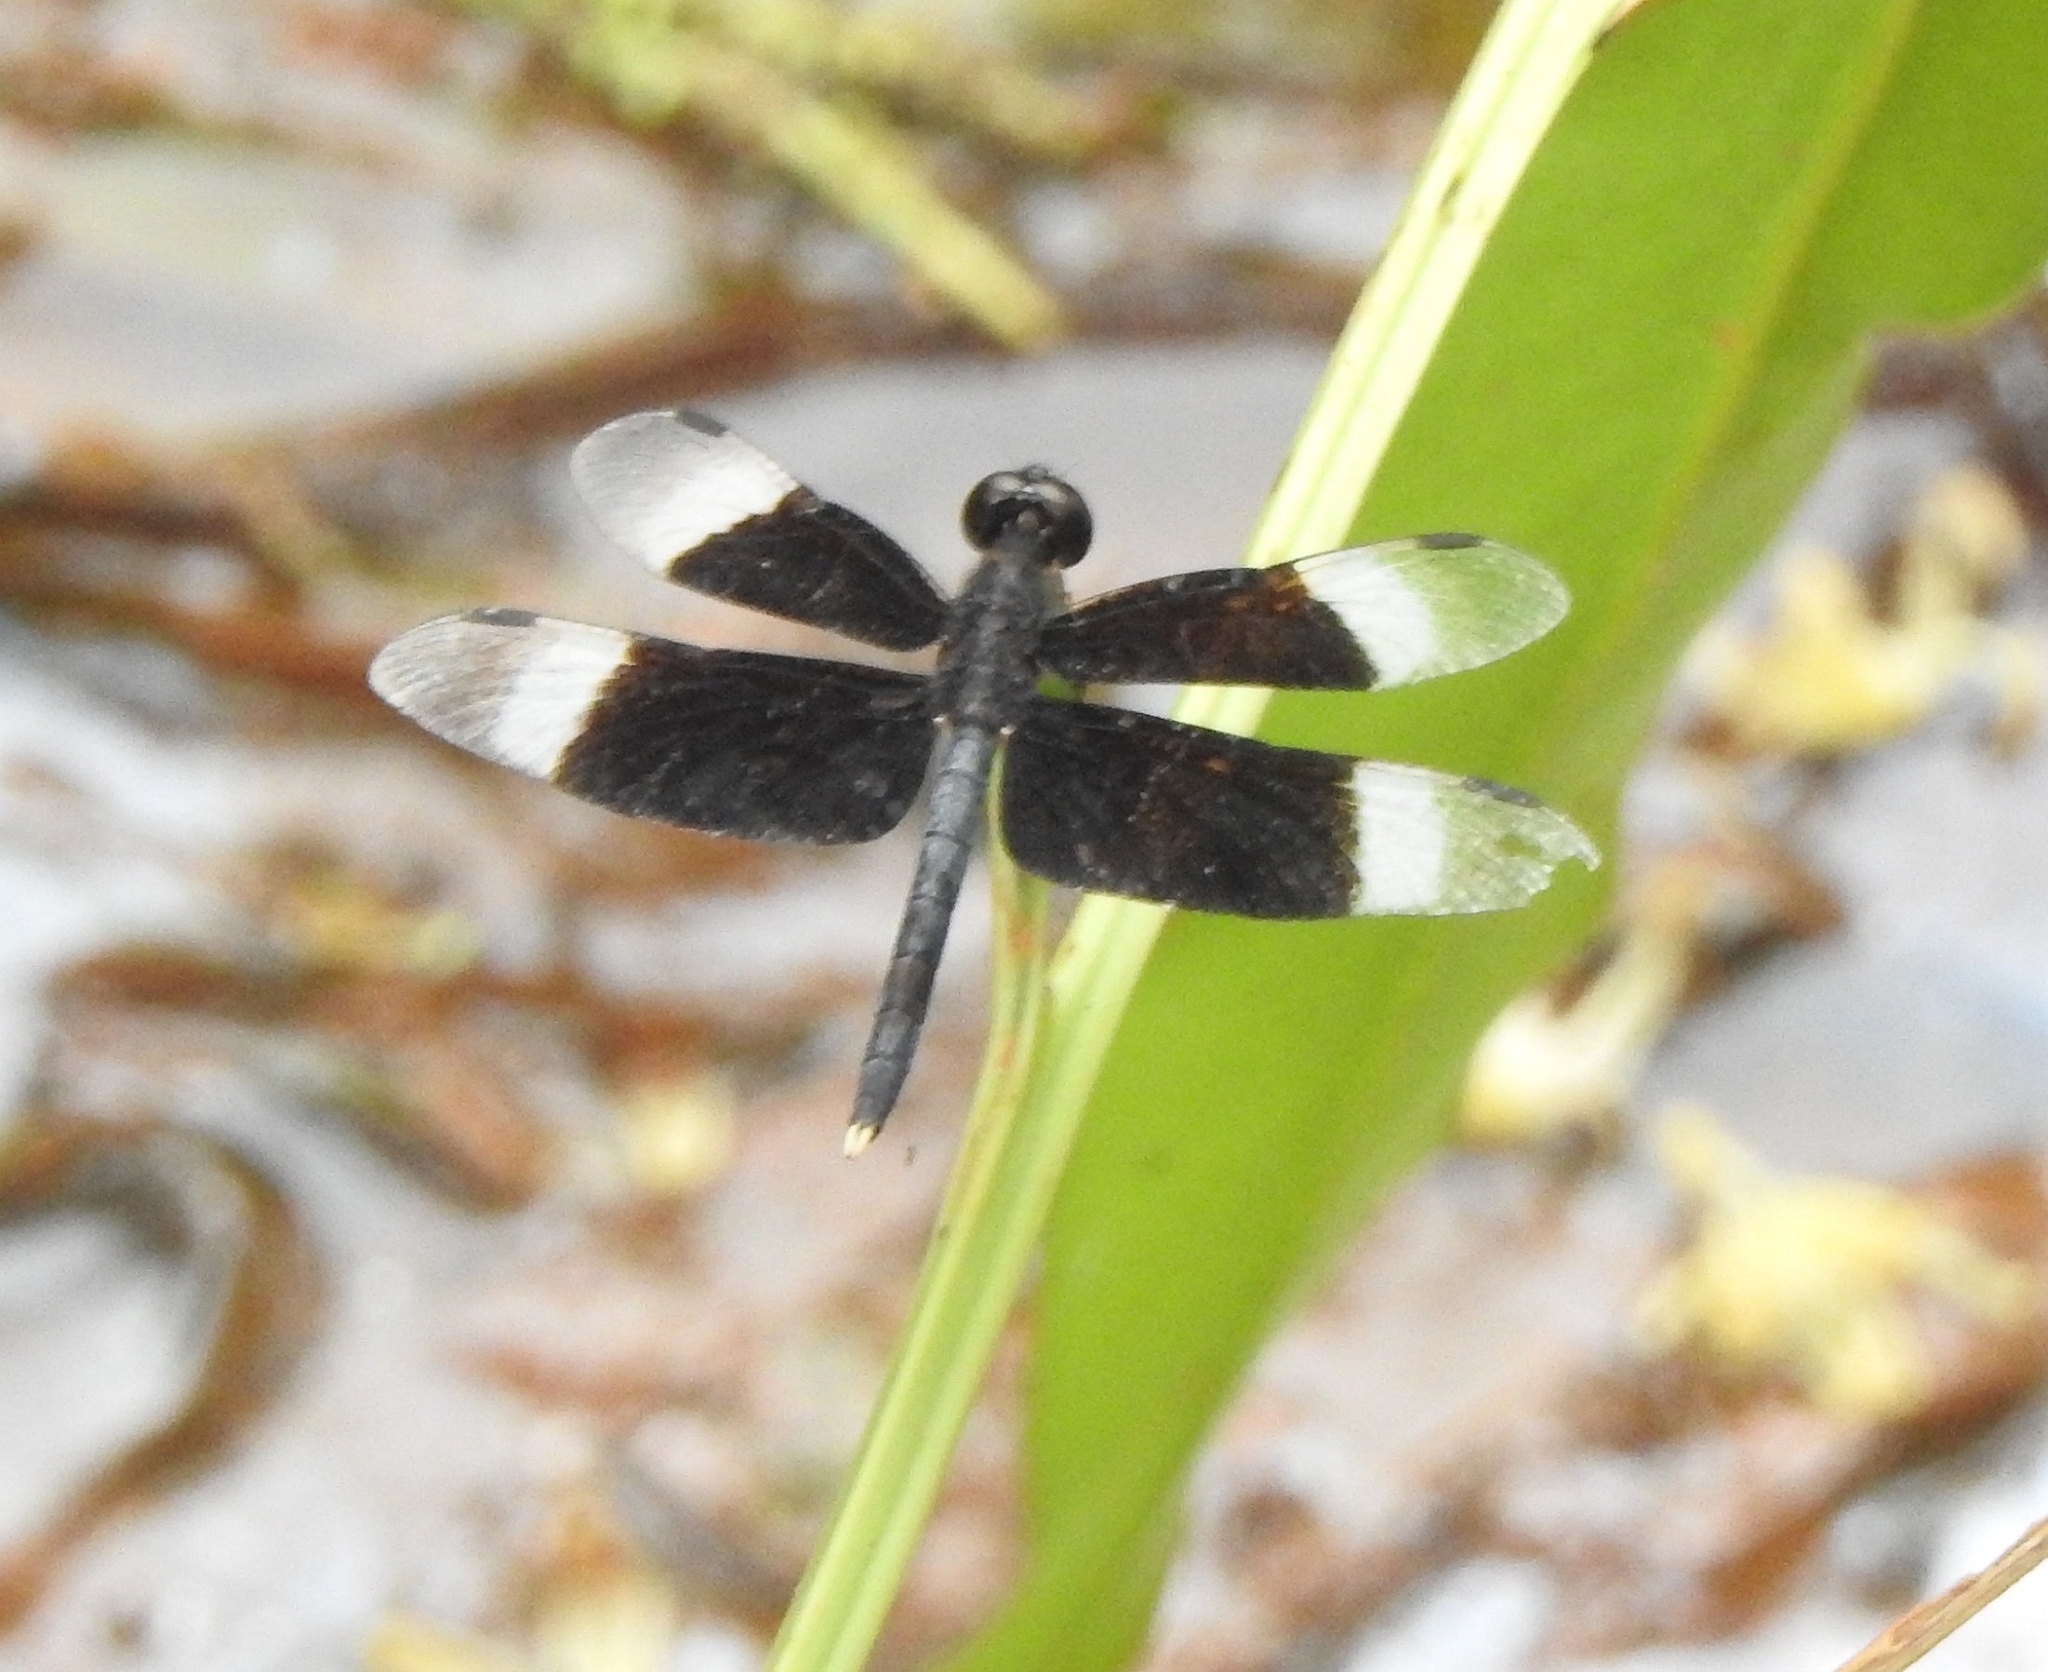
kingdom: Animalia
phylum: Arthropoda
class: Insecta
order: Odonata
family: Libellulidae
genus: Neurothemis
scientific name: Neurothemis tullia
